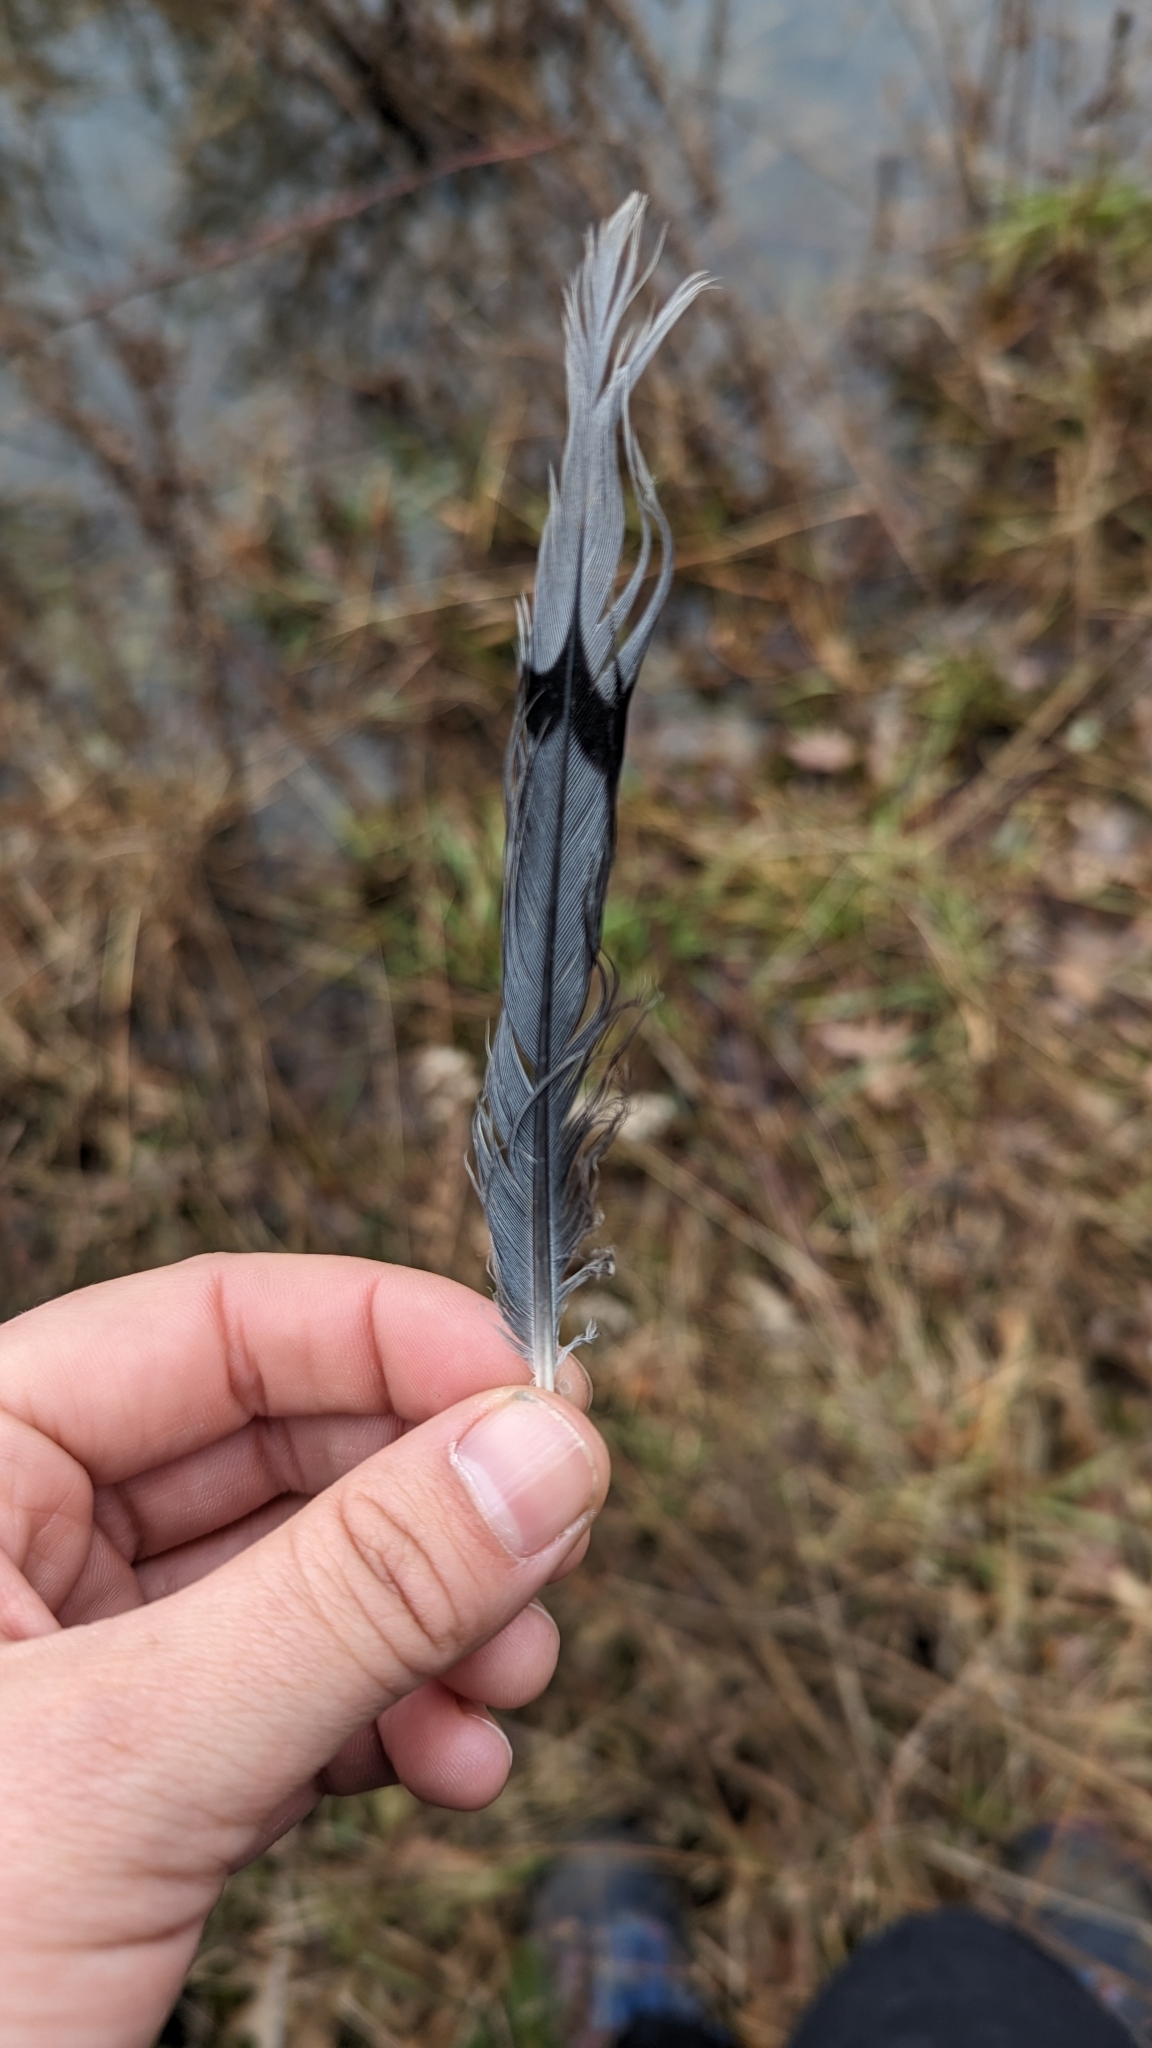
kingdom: Animalia
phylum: Chordata
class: Aves
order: Columbiformes
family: Columbidae
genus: Zenaida
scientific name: Zenaida macroura
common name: Mourning dove
